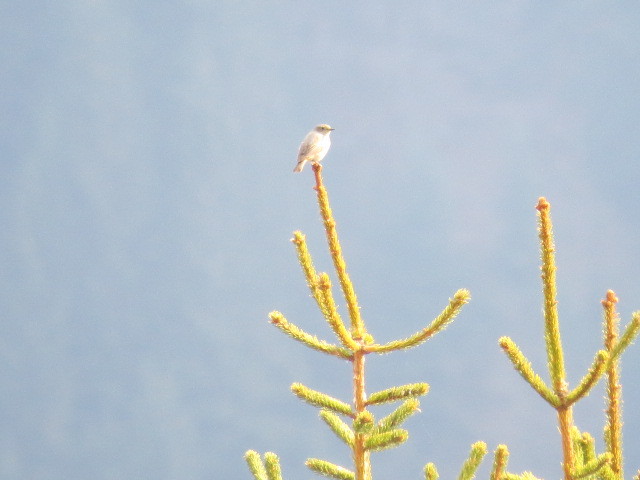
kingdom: Animalia
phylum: Chordata
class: Aves
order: Passeriformes
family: Muscicapidae
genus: Phoenicurus
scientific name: Phoenicurus phoenicurus
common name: Common redstart
